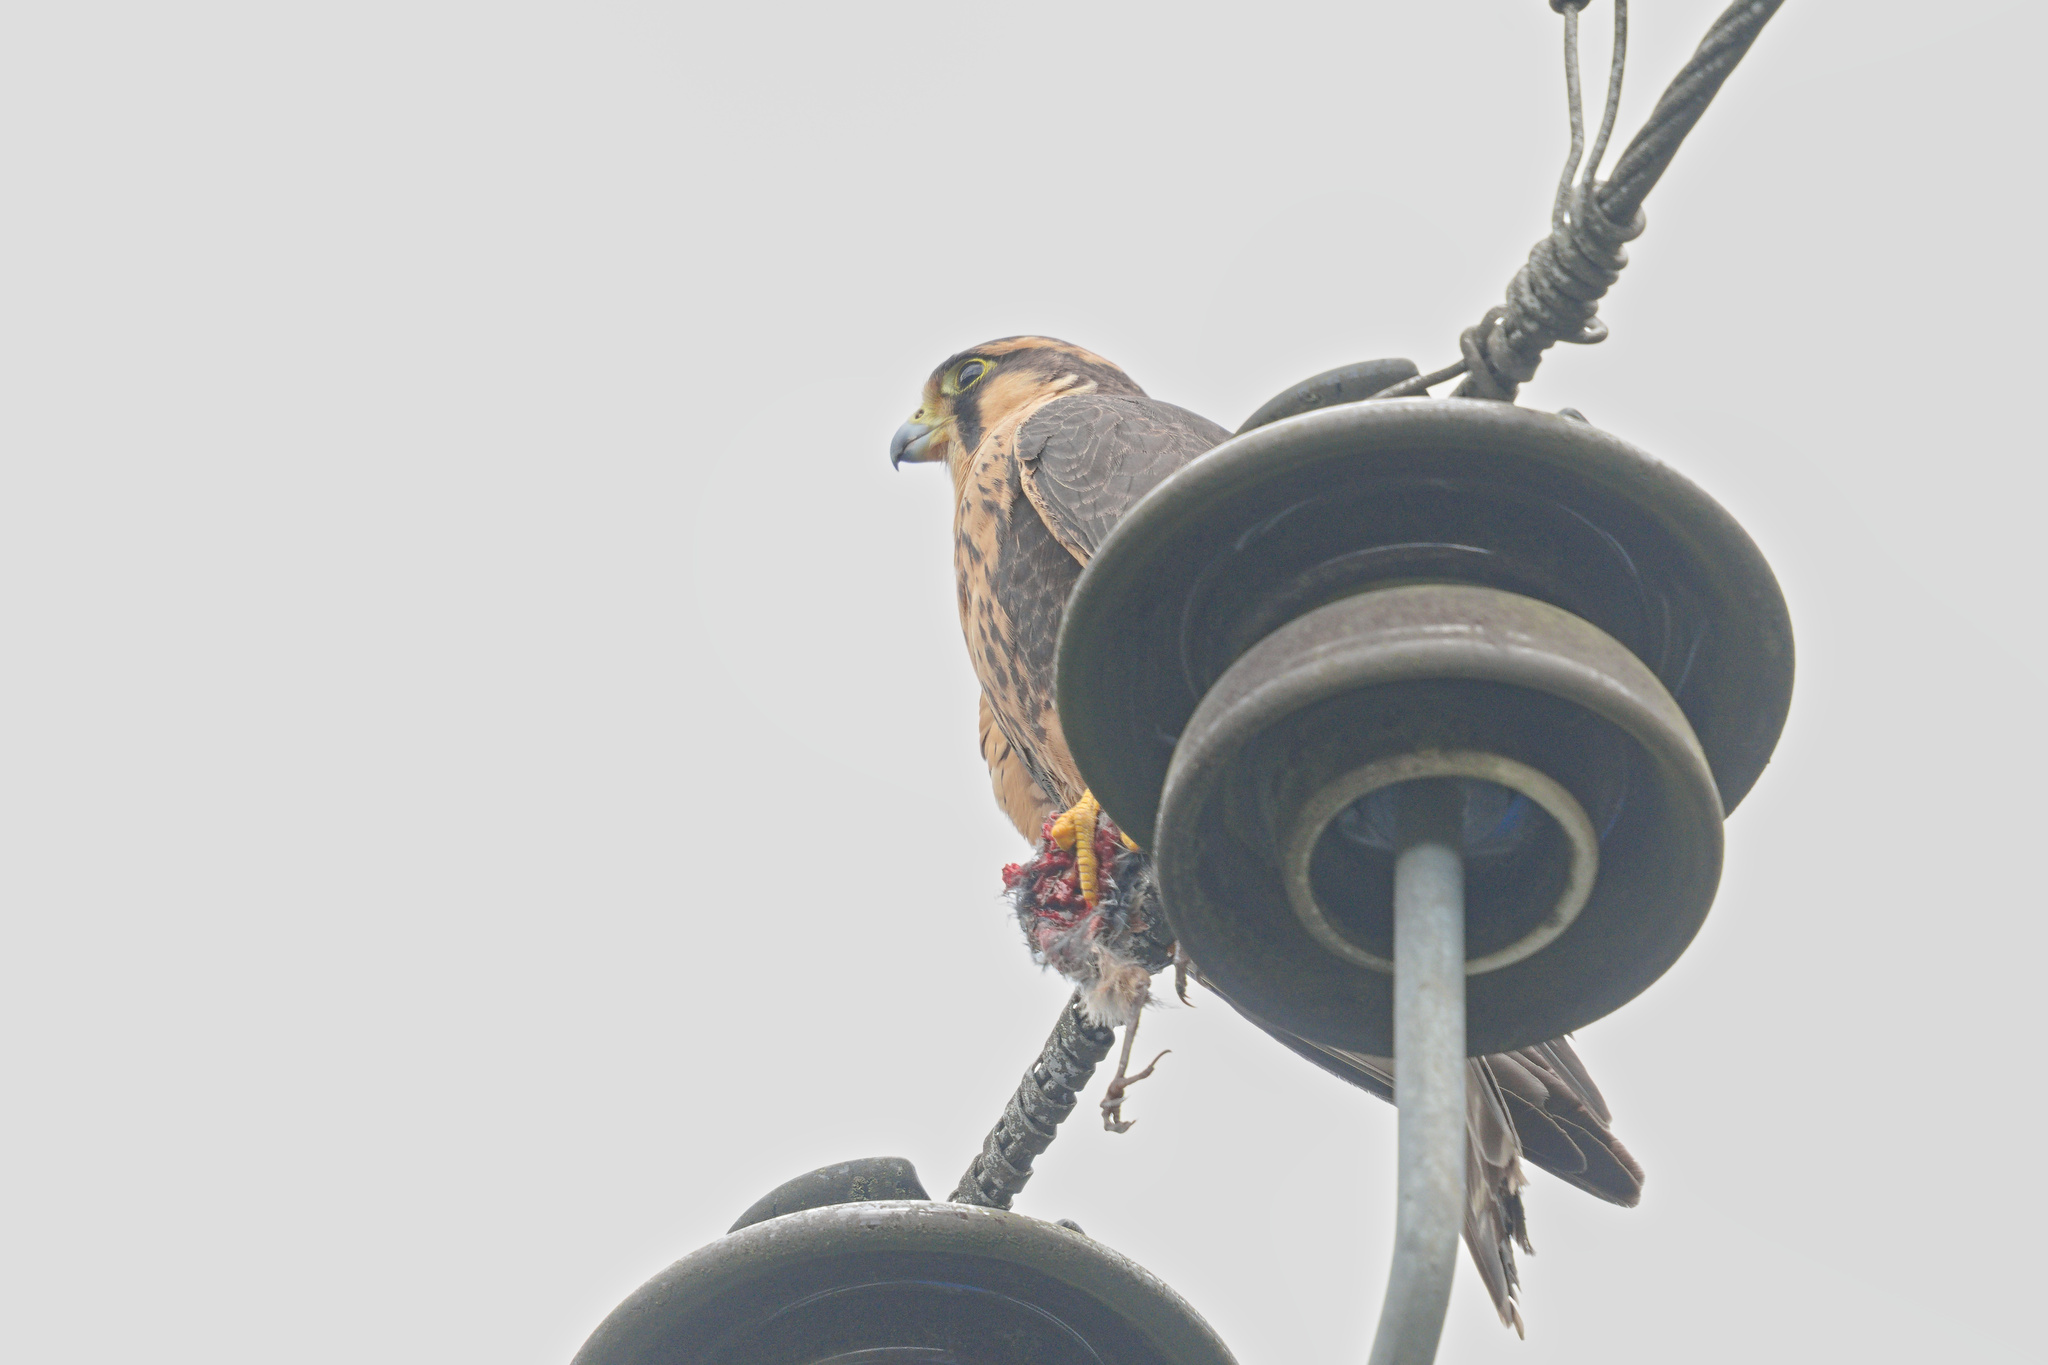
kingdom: Animalia
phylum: Chordata
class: Aves
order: Falconiformes
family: Falconidae
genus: Falco
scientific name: Falco femoralis
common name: Aplomado falcon
